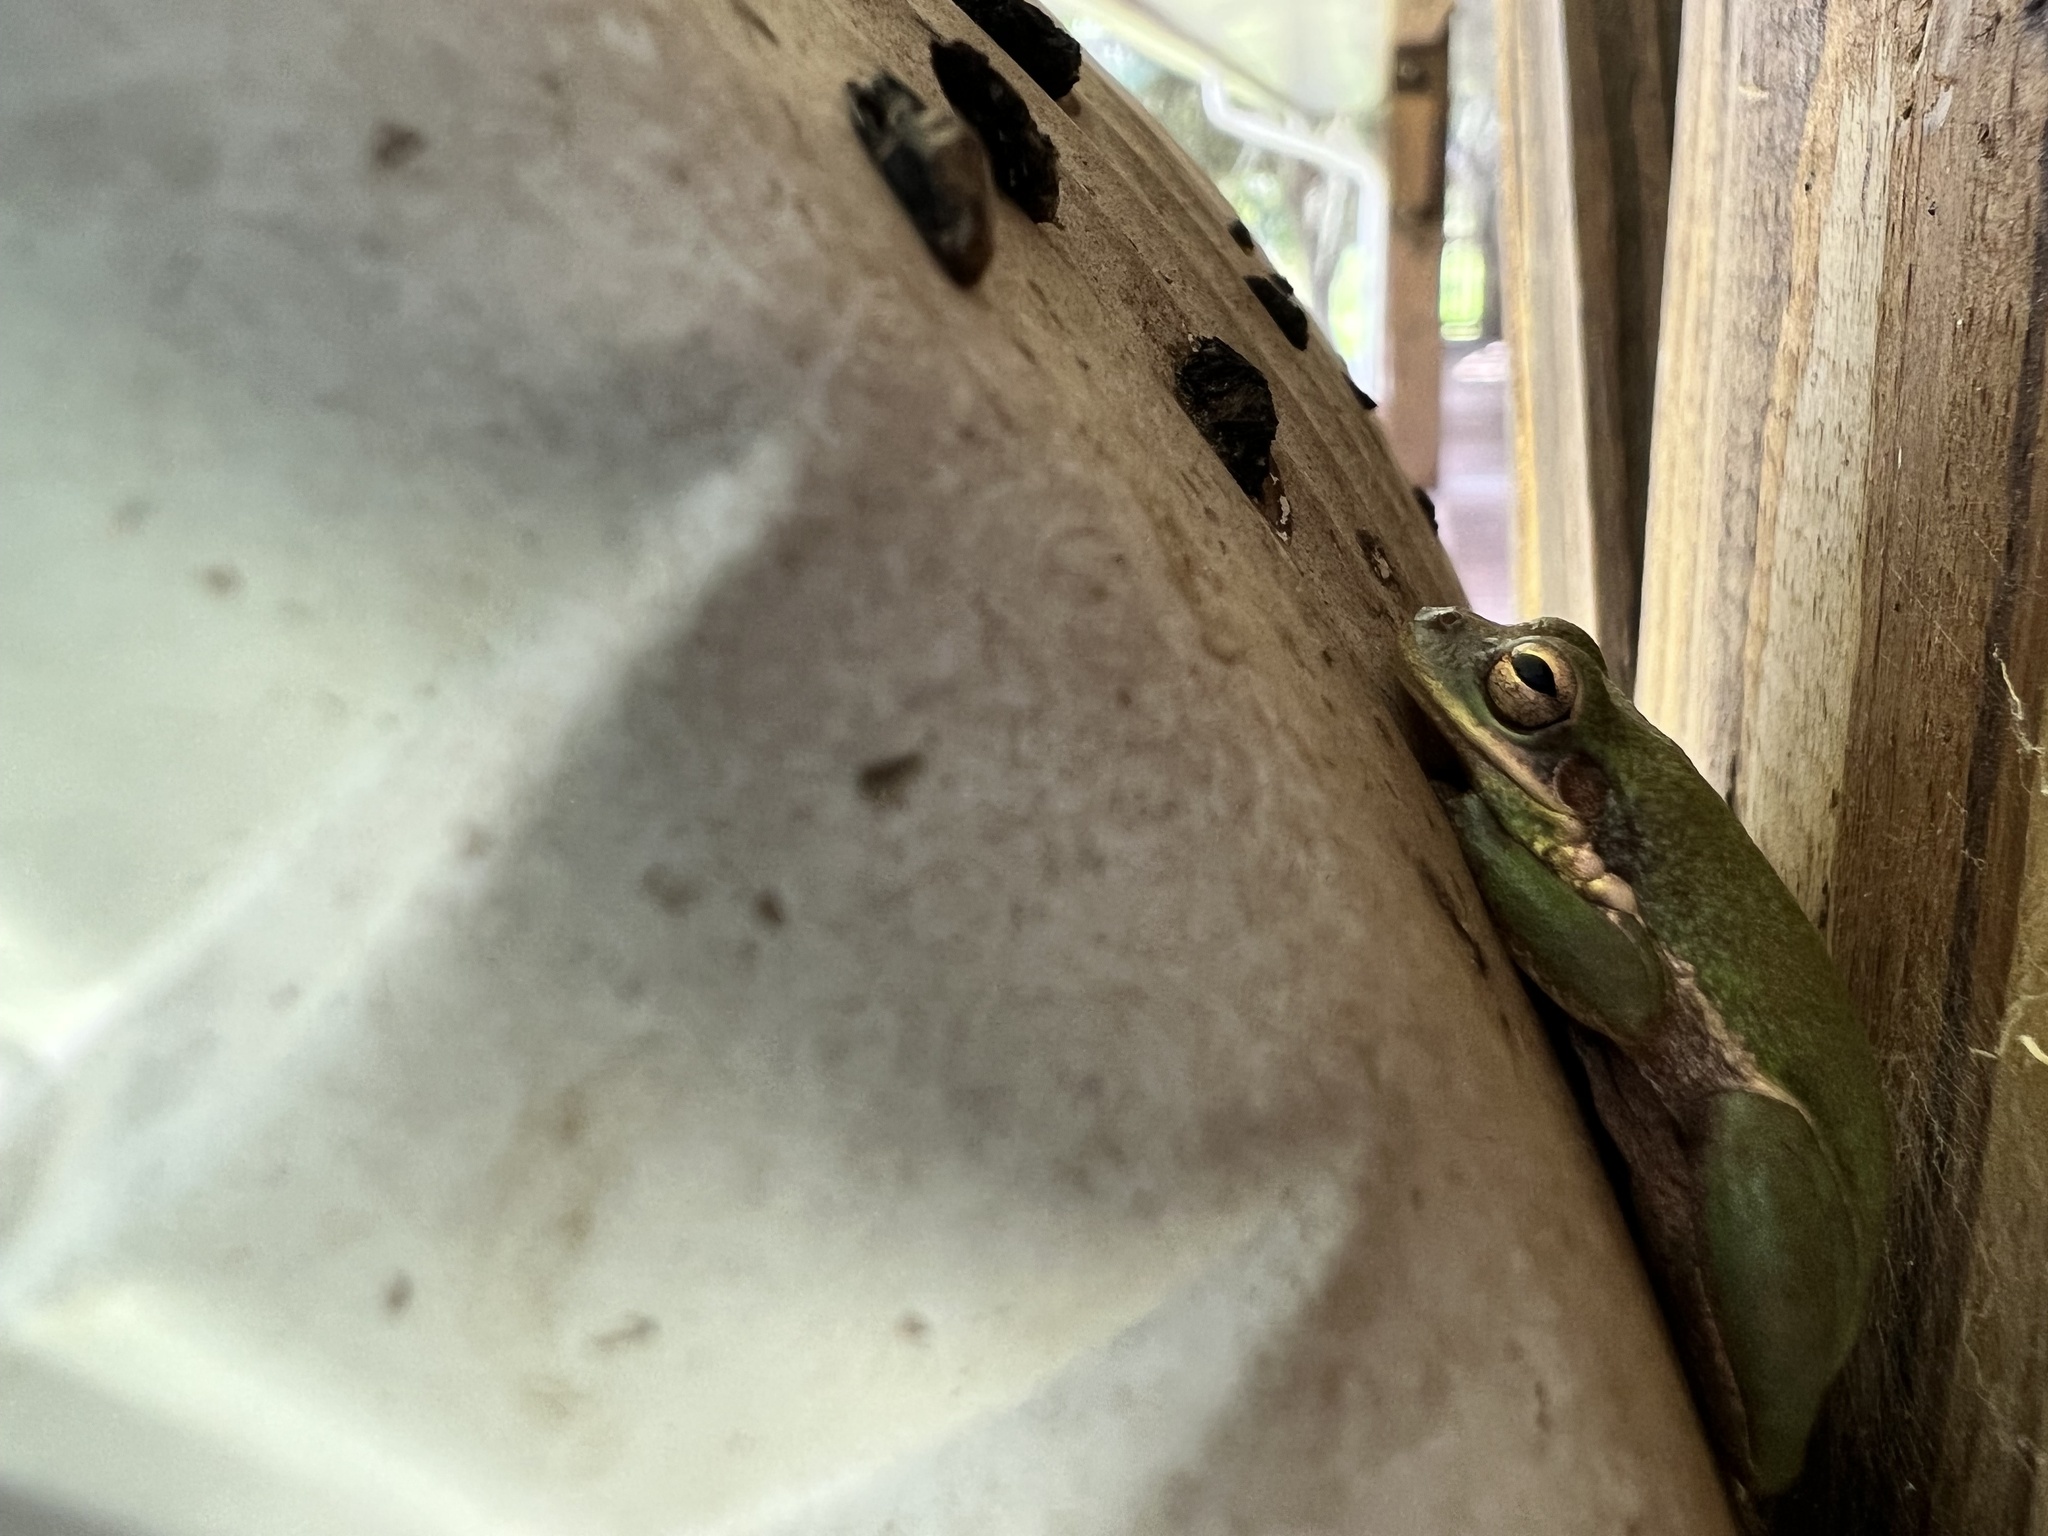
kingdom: Animalia
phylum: Chordata
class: Amphibia
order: Anura
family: Hylidae
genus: Dryophytes
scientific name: Dryophytes squirellus
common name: Squirrel treefrog
